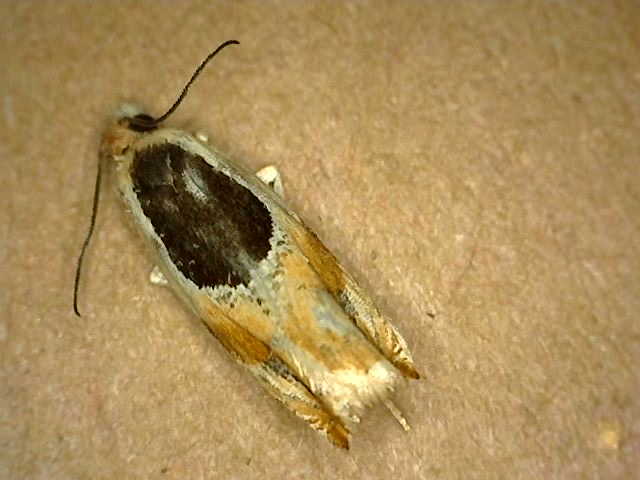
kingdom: Animalia
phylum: Arthropoda
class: Insecta
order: Lepidoptera
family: Tortricidae
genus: Ancylis
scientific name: Ancylis burgessiana
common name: Oak leaffolder moth
